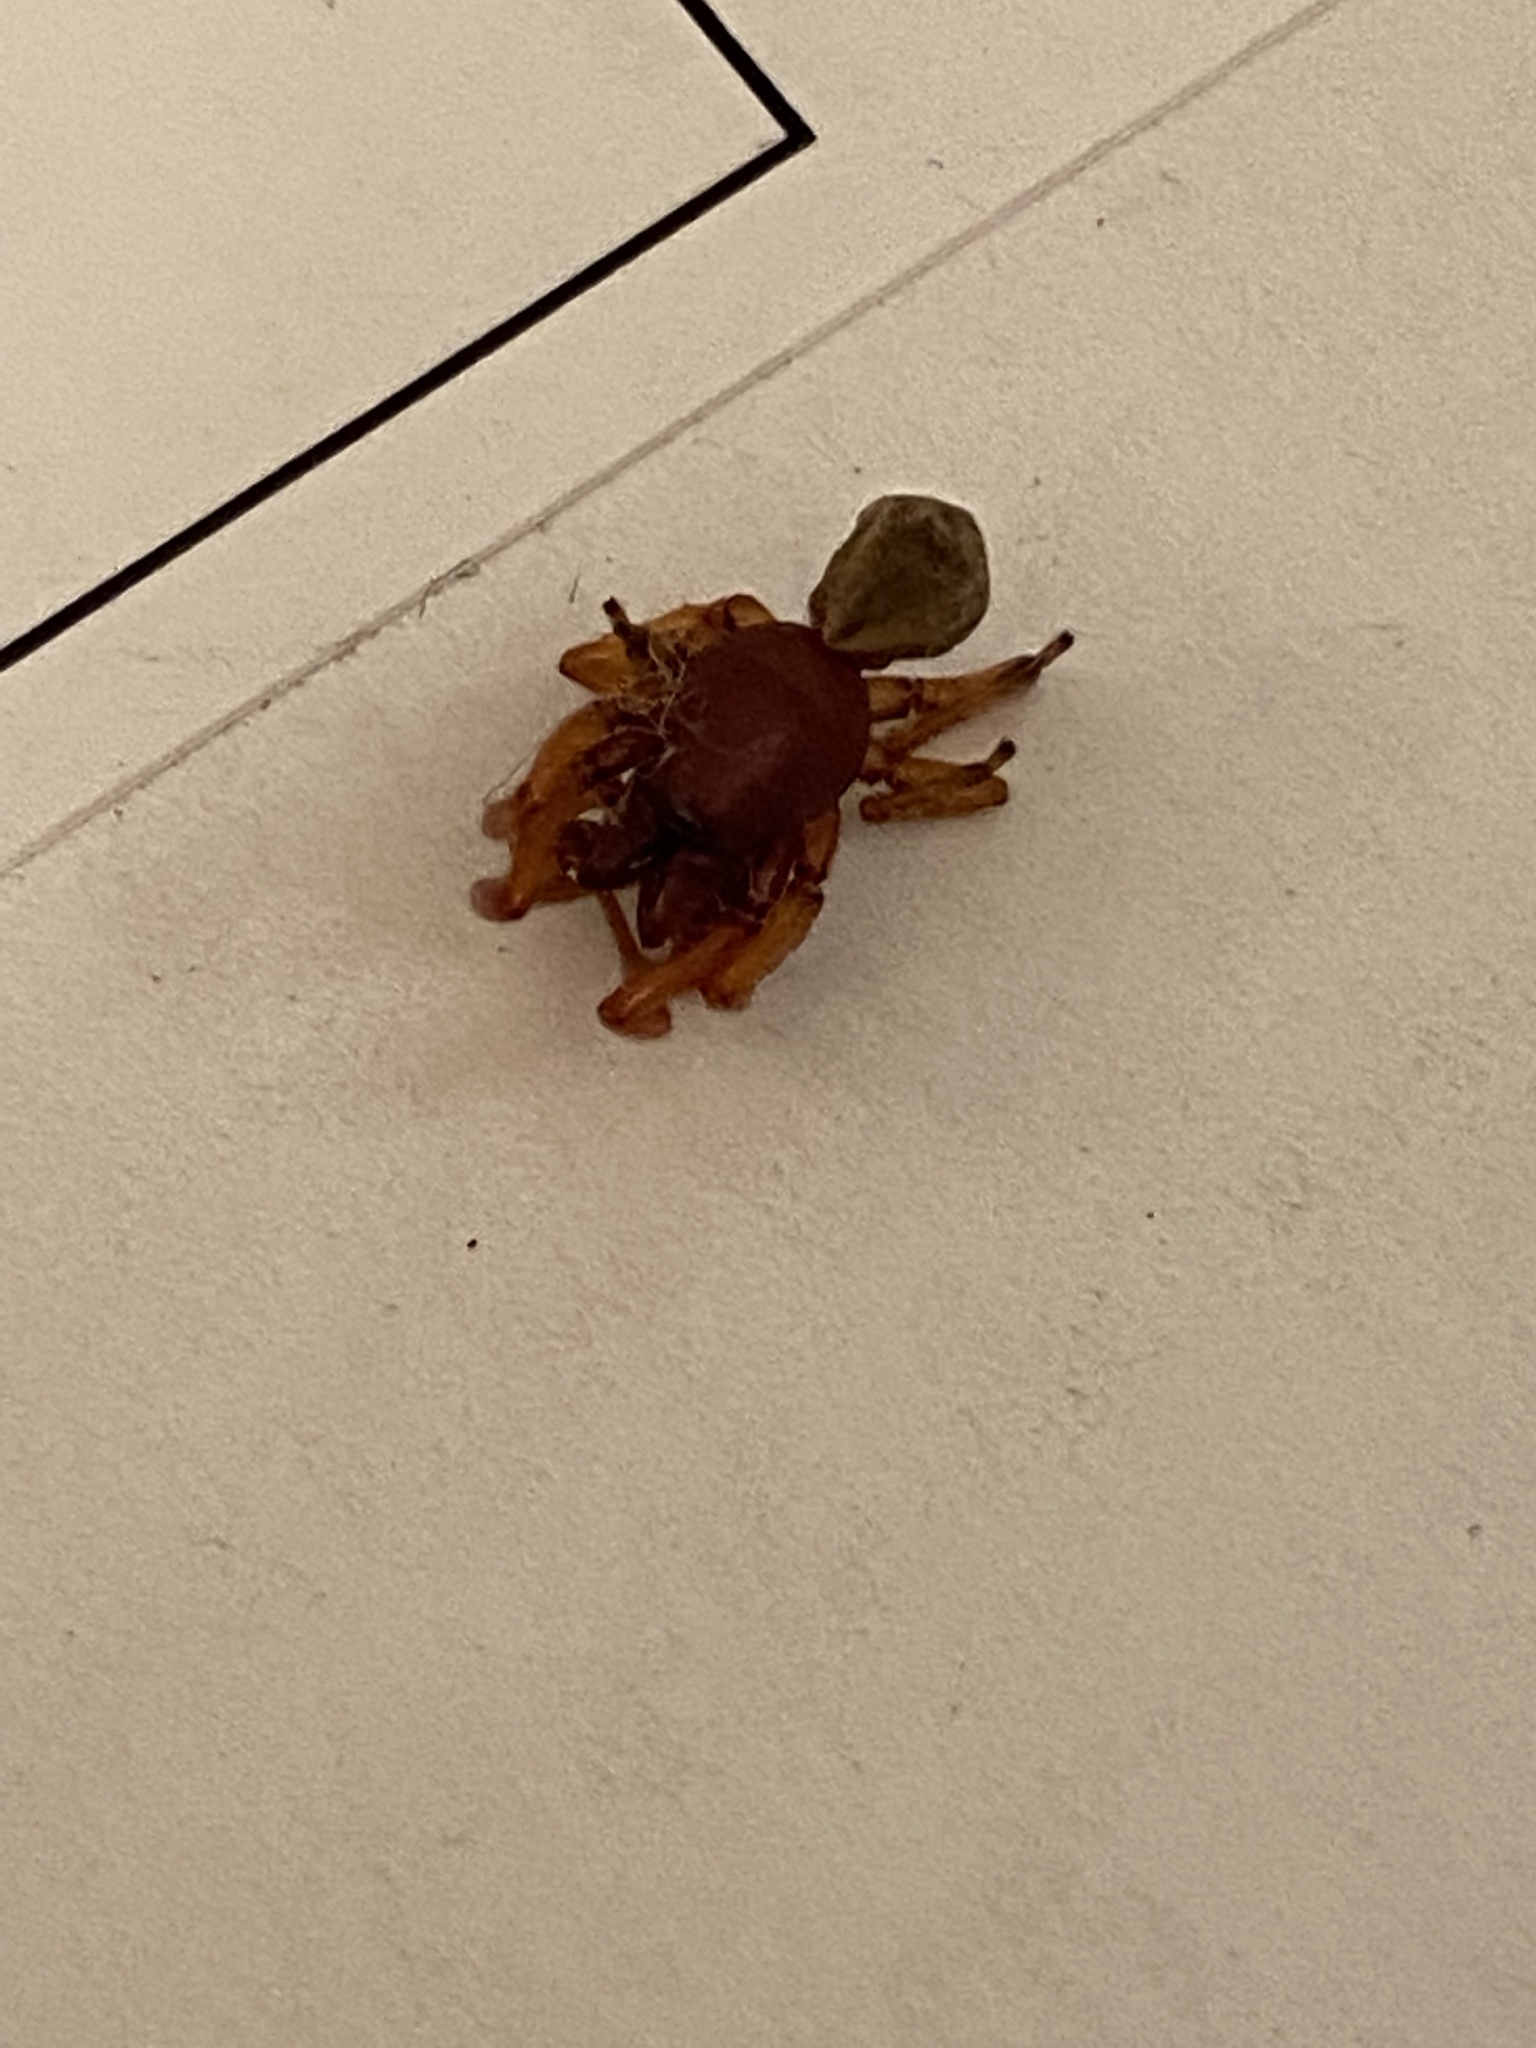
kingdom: Animalia
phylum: Arthropoda
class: Arachnida
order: Araneae
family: Dysderidae
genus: Dysdera
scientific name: Dysdera crocata
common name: Woodlouse spider
